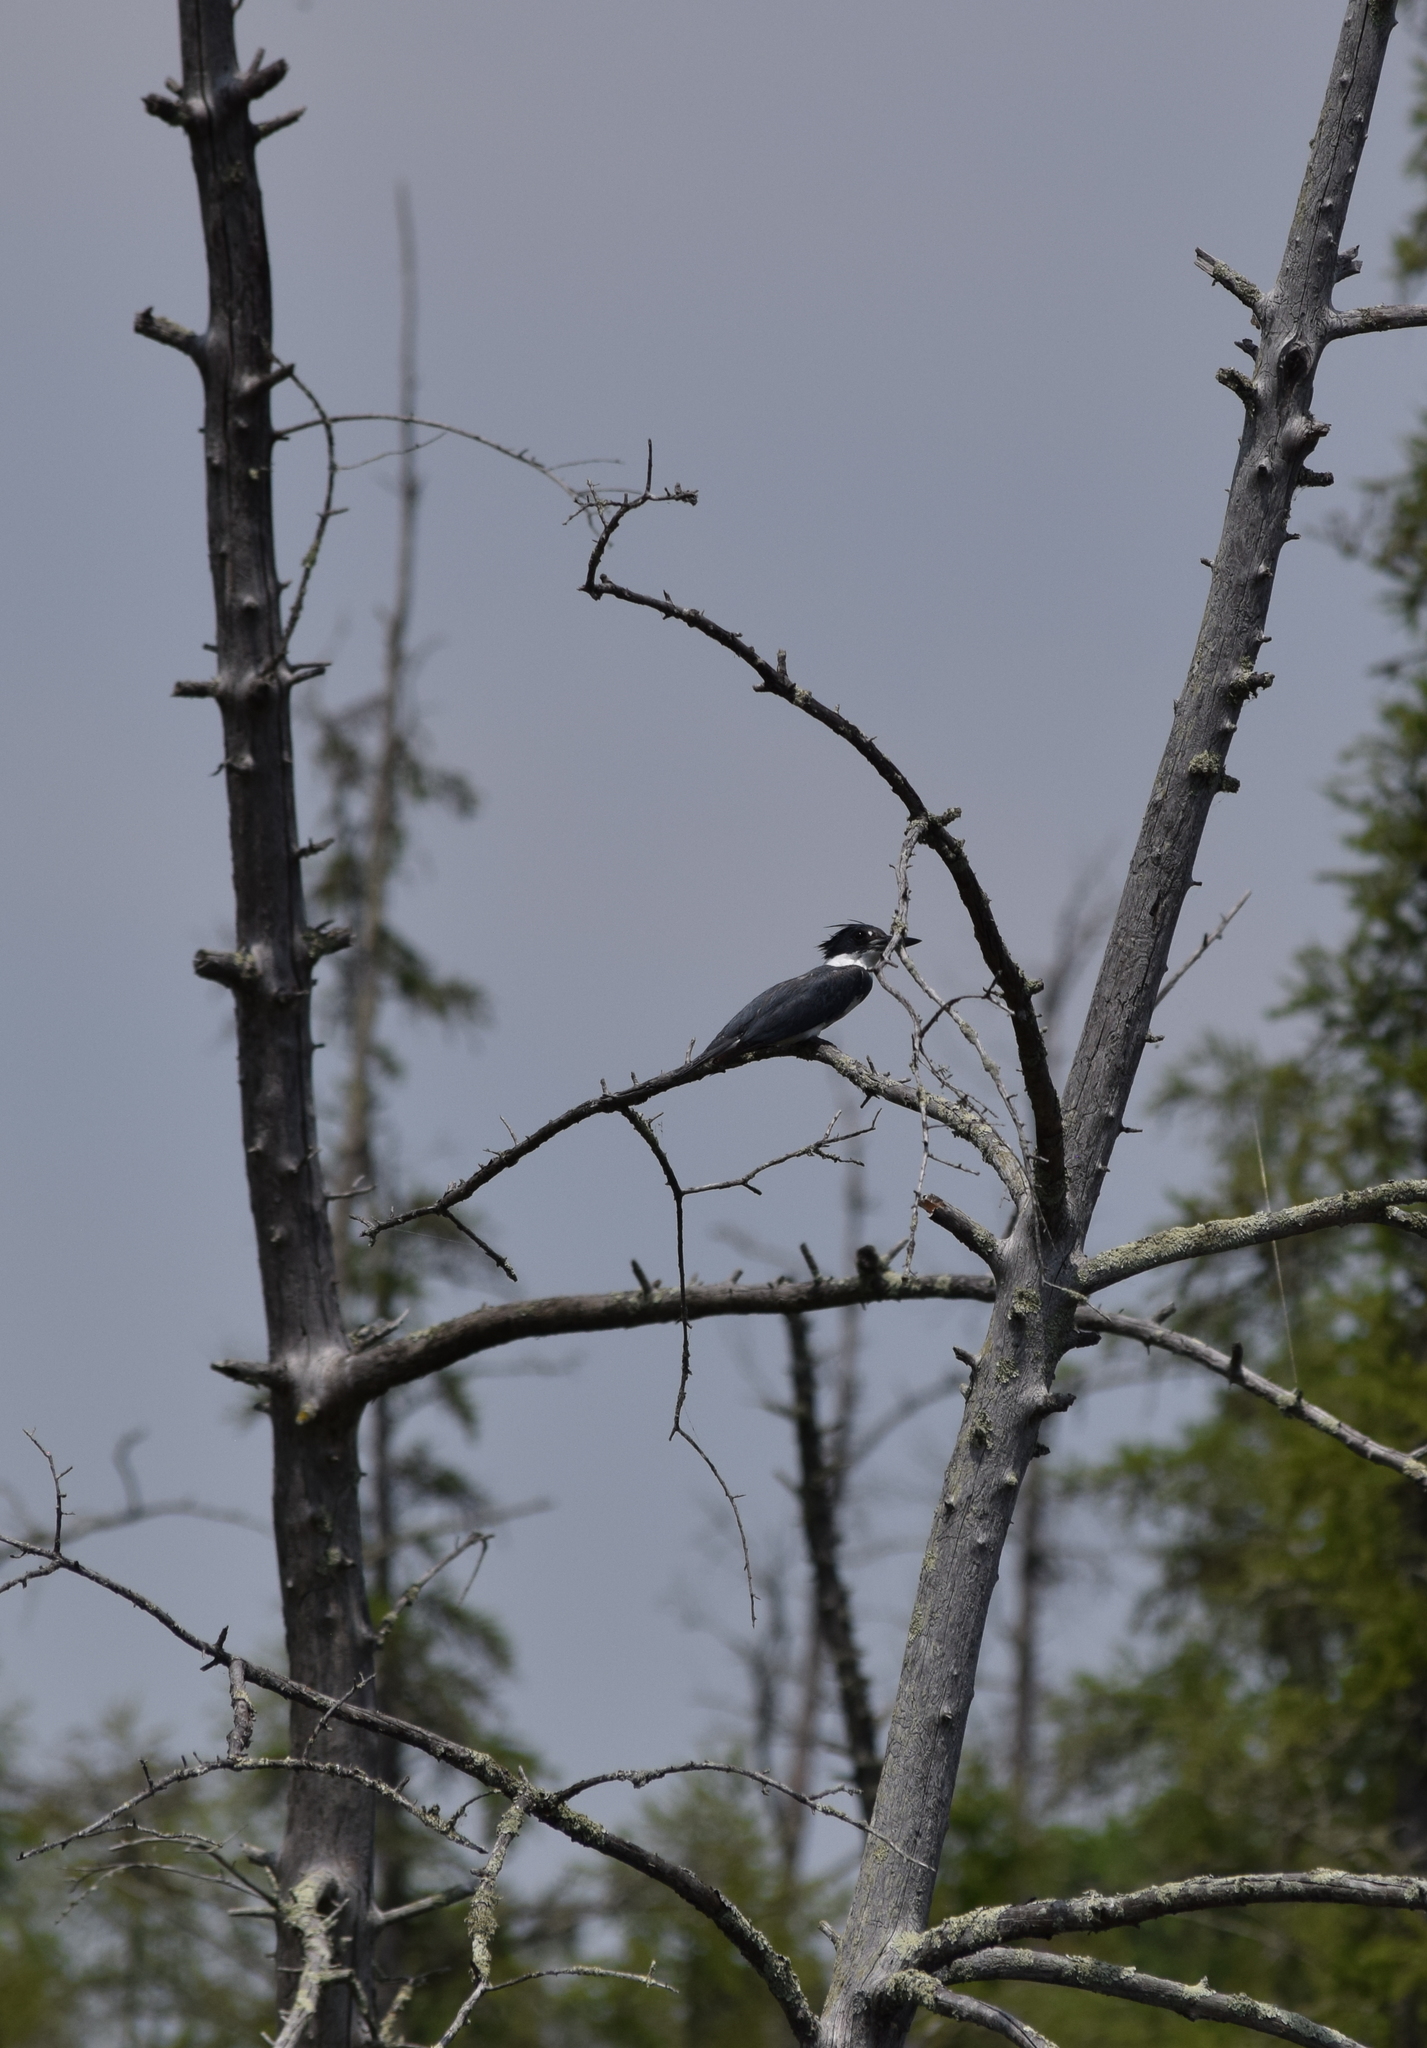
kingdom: Animalia
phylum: Chordata
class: Aves
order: Coraciiformes
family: Alcedinidae
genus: Megaceryle
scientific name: Megaceryle alcyon
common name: Belted kingfisher
